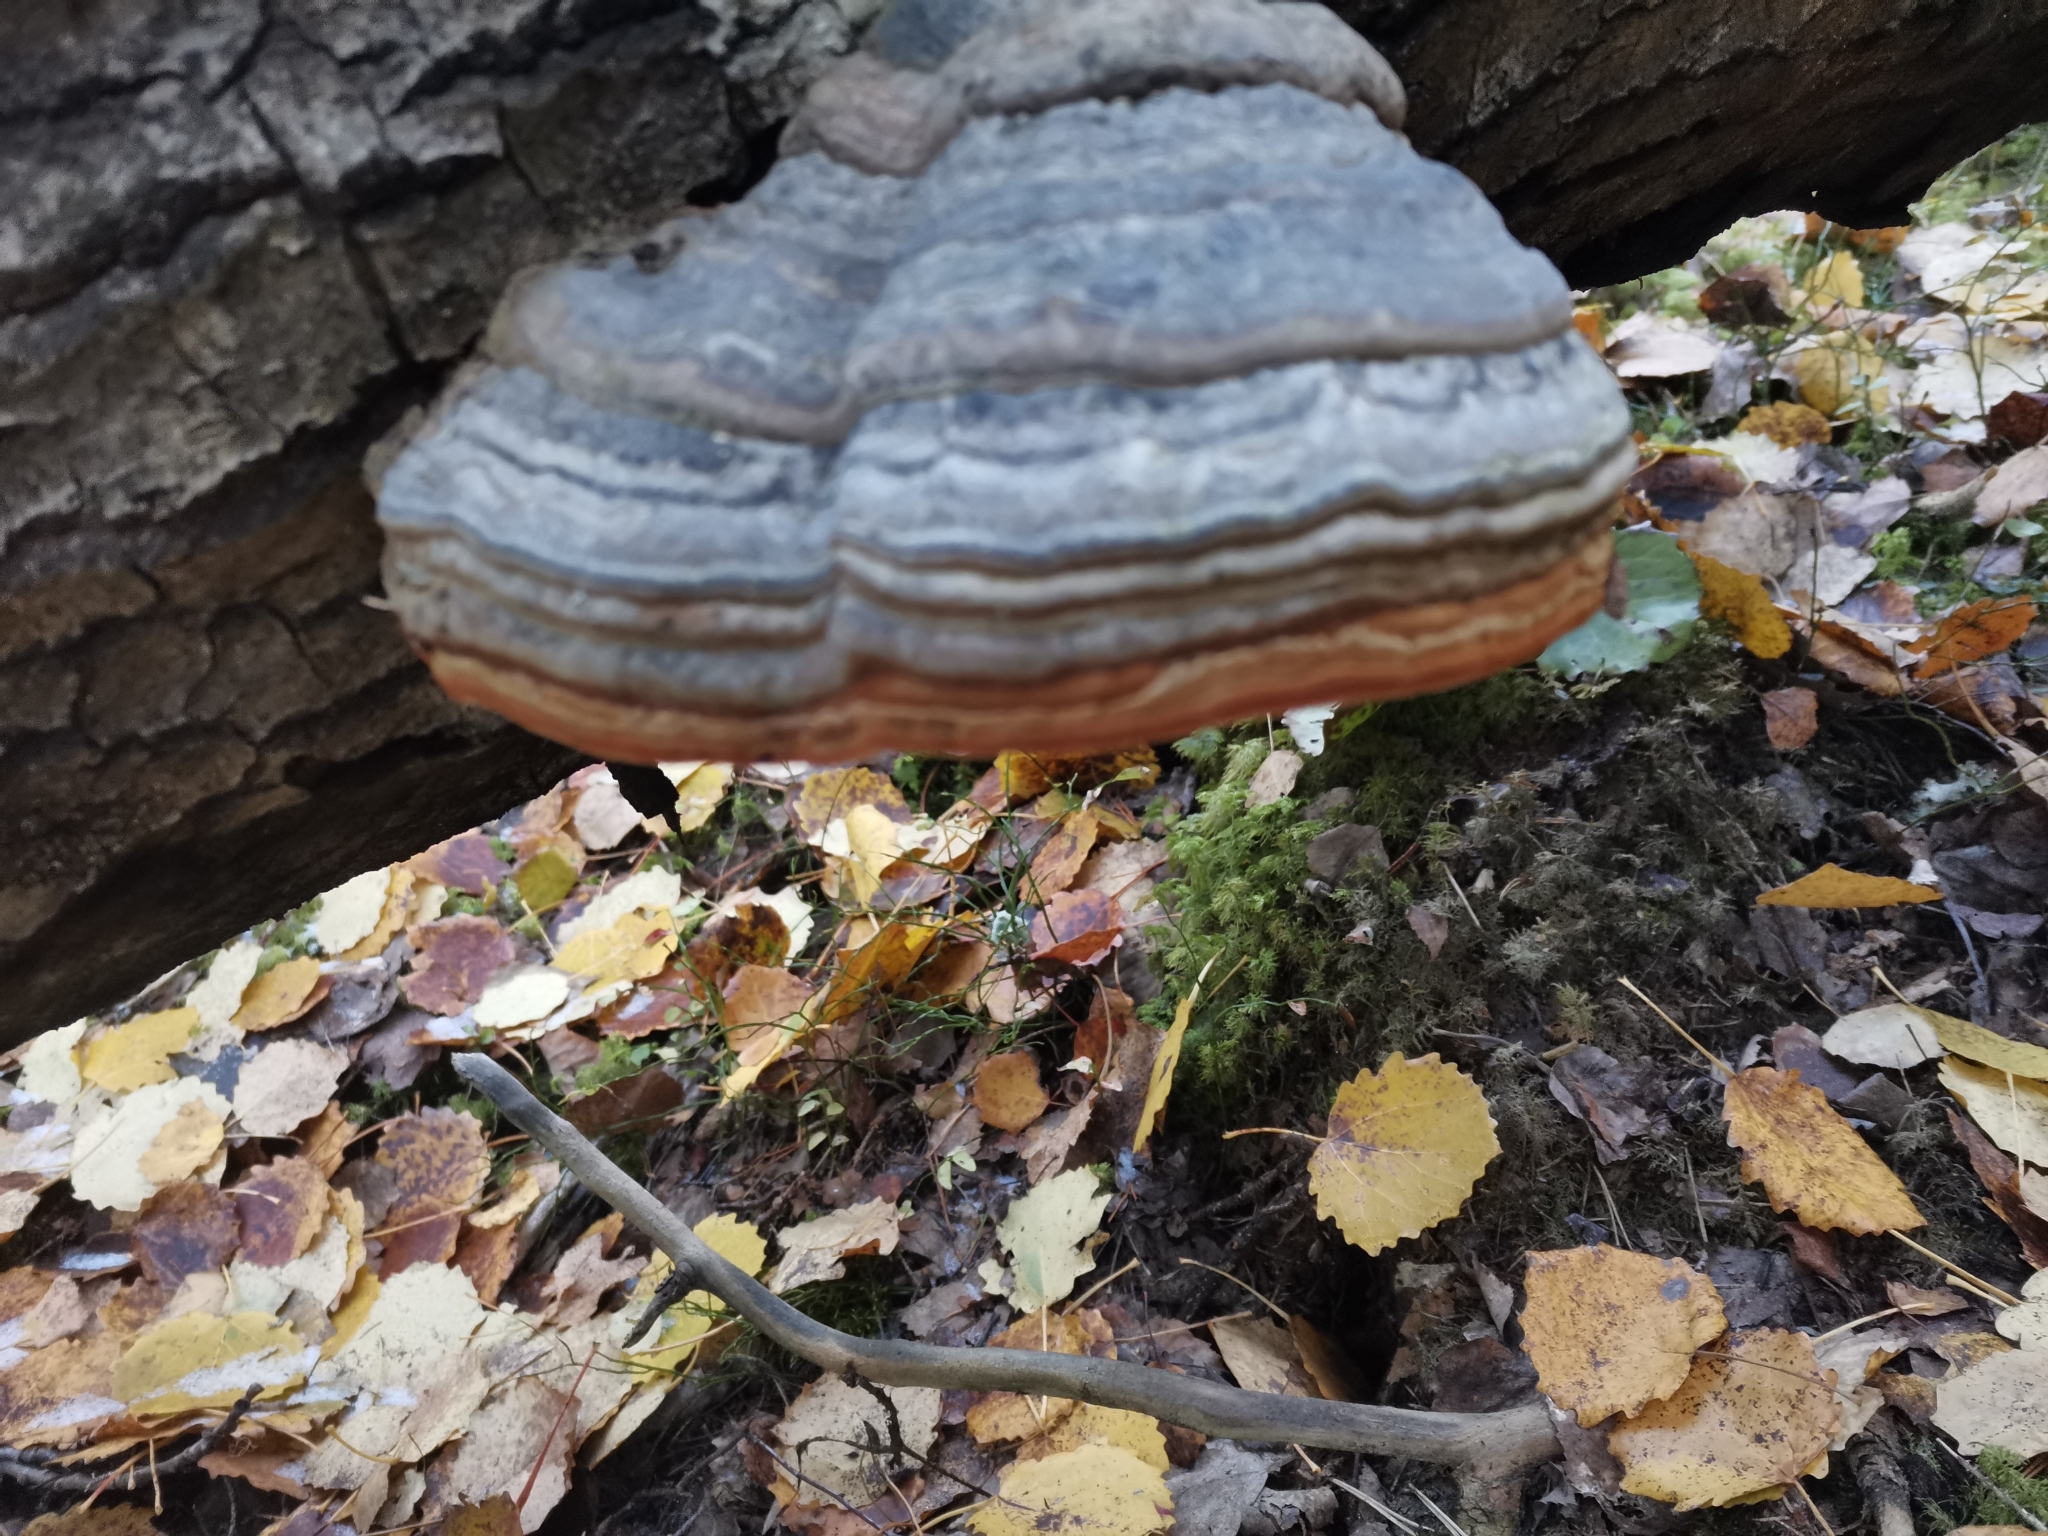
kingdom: Fungi
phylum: Basidiomycota
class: Agaricomycetes
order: Polyporales
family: Polyporaceae
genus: Fomes
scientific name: Fomes fomentarius
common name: Hoof fungus
